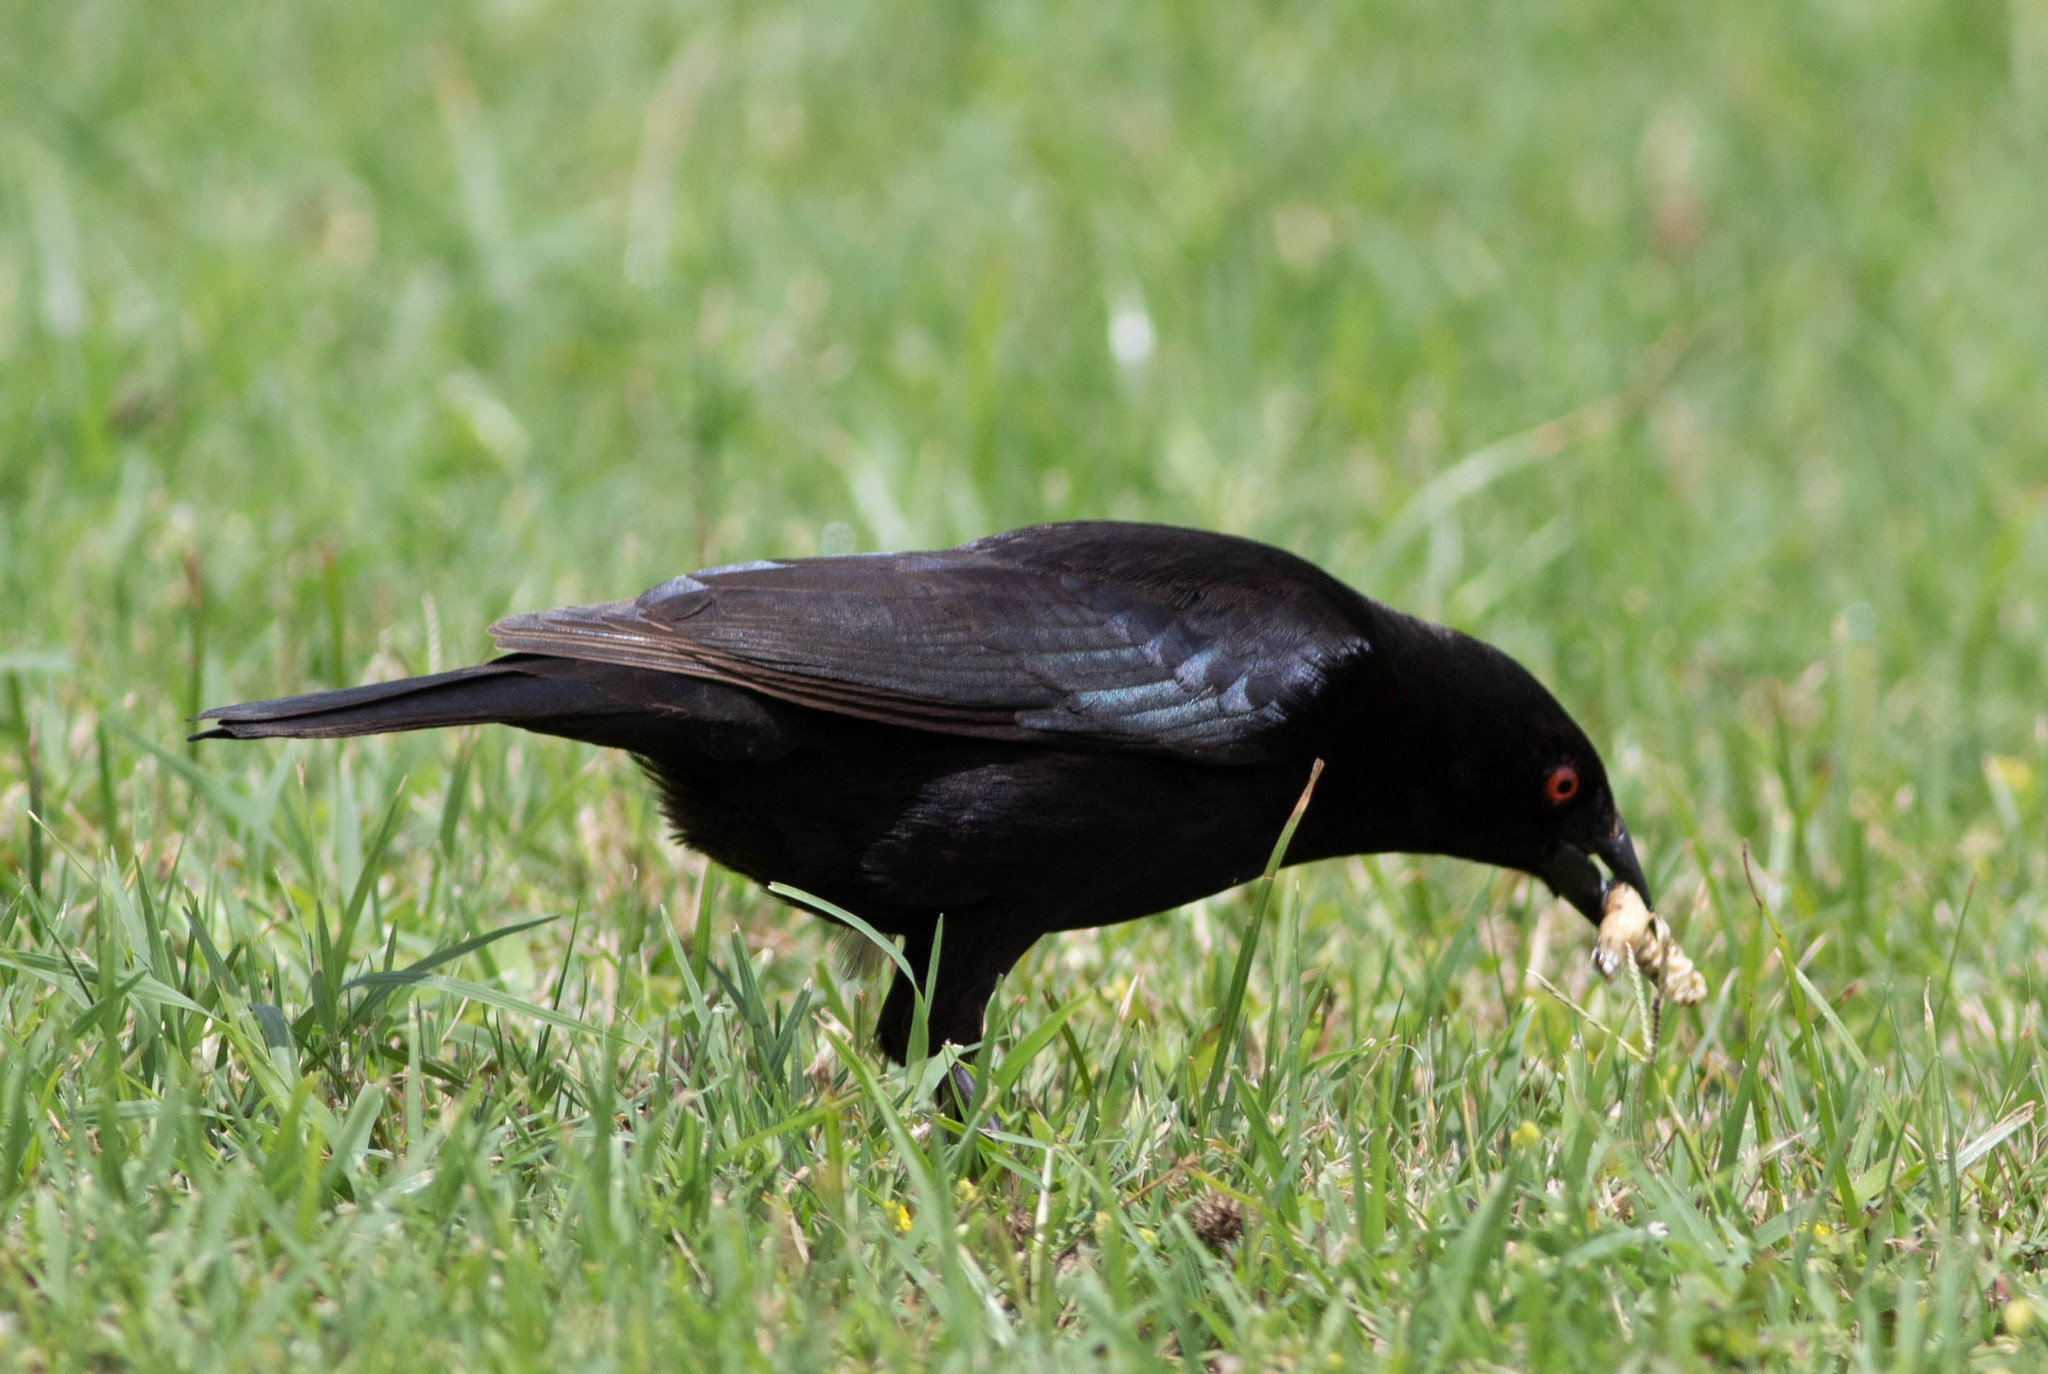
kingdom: Animalia
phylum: Chordata
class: Aves
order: Passeriformes
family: Icteridae
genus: Molothrus
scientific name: Molothrus aeneus
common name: Bronzed cowbird
